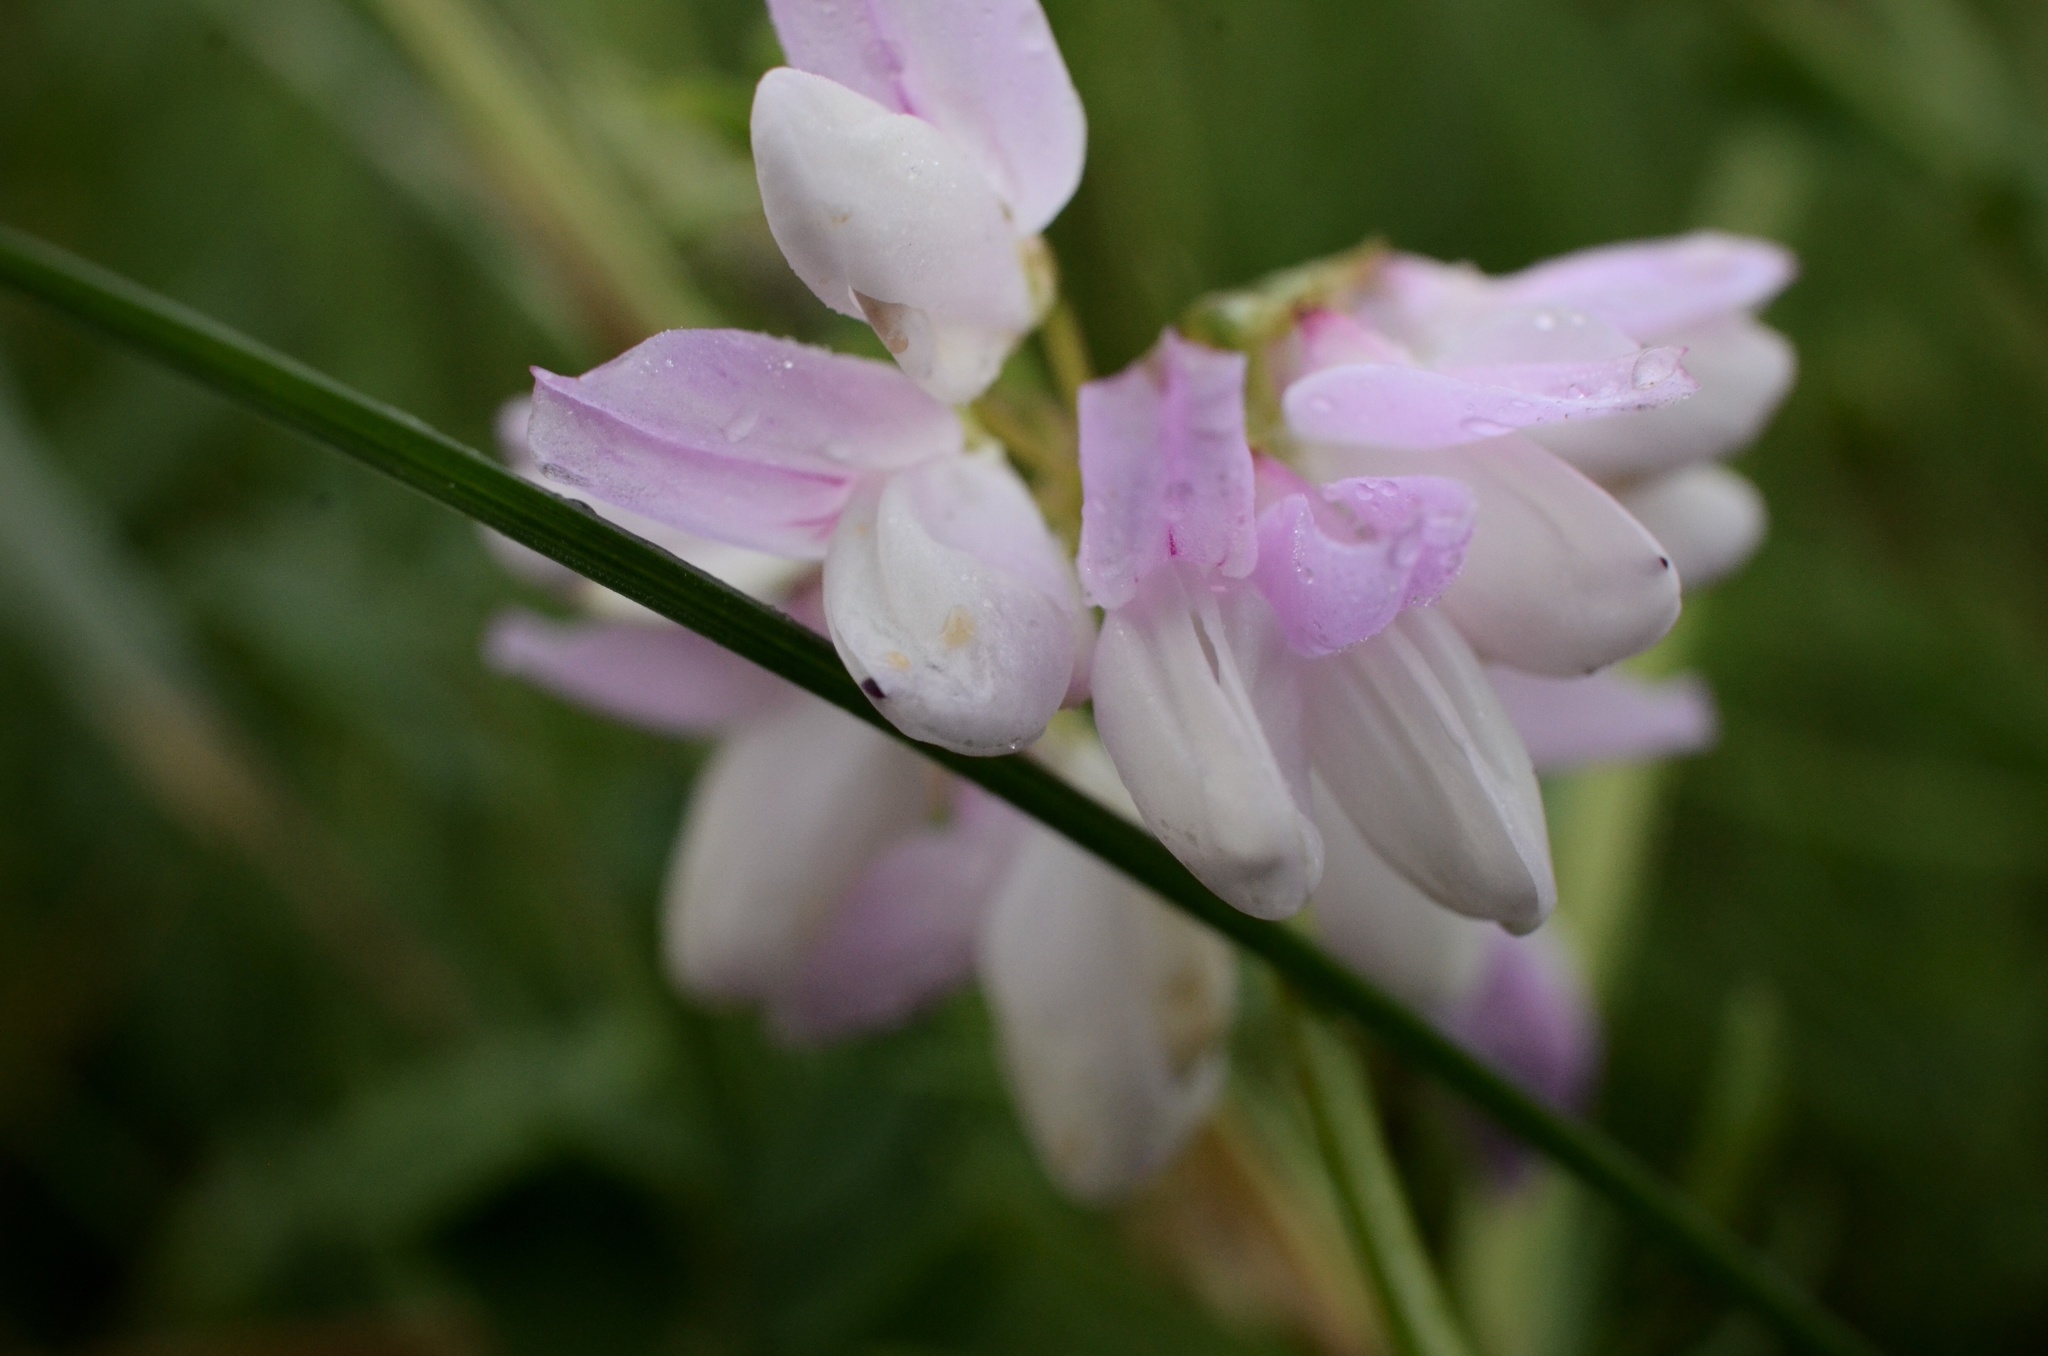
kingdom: Plantae
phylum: Tracheophyta
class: Magnoliopsida
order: Fabales
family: Fabaceae
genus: Coronilla
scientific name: Coronilla varia
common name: Crownvetch
